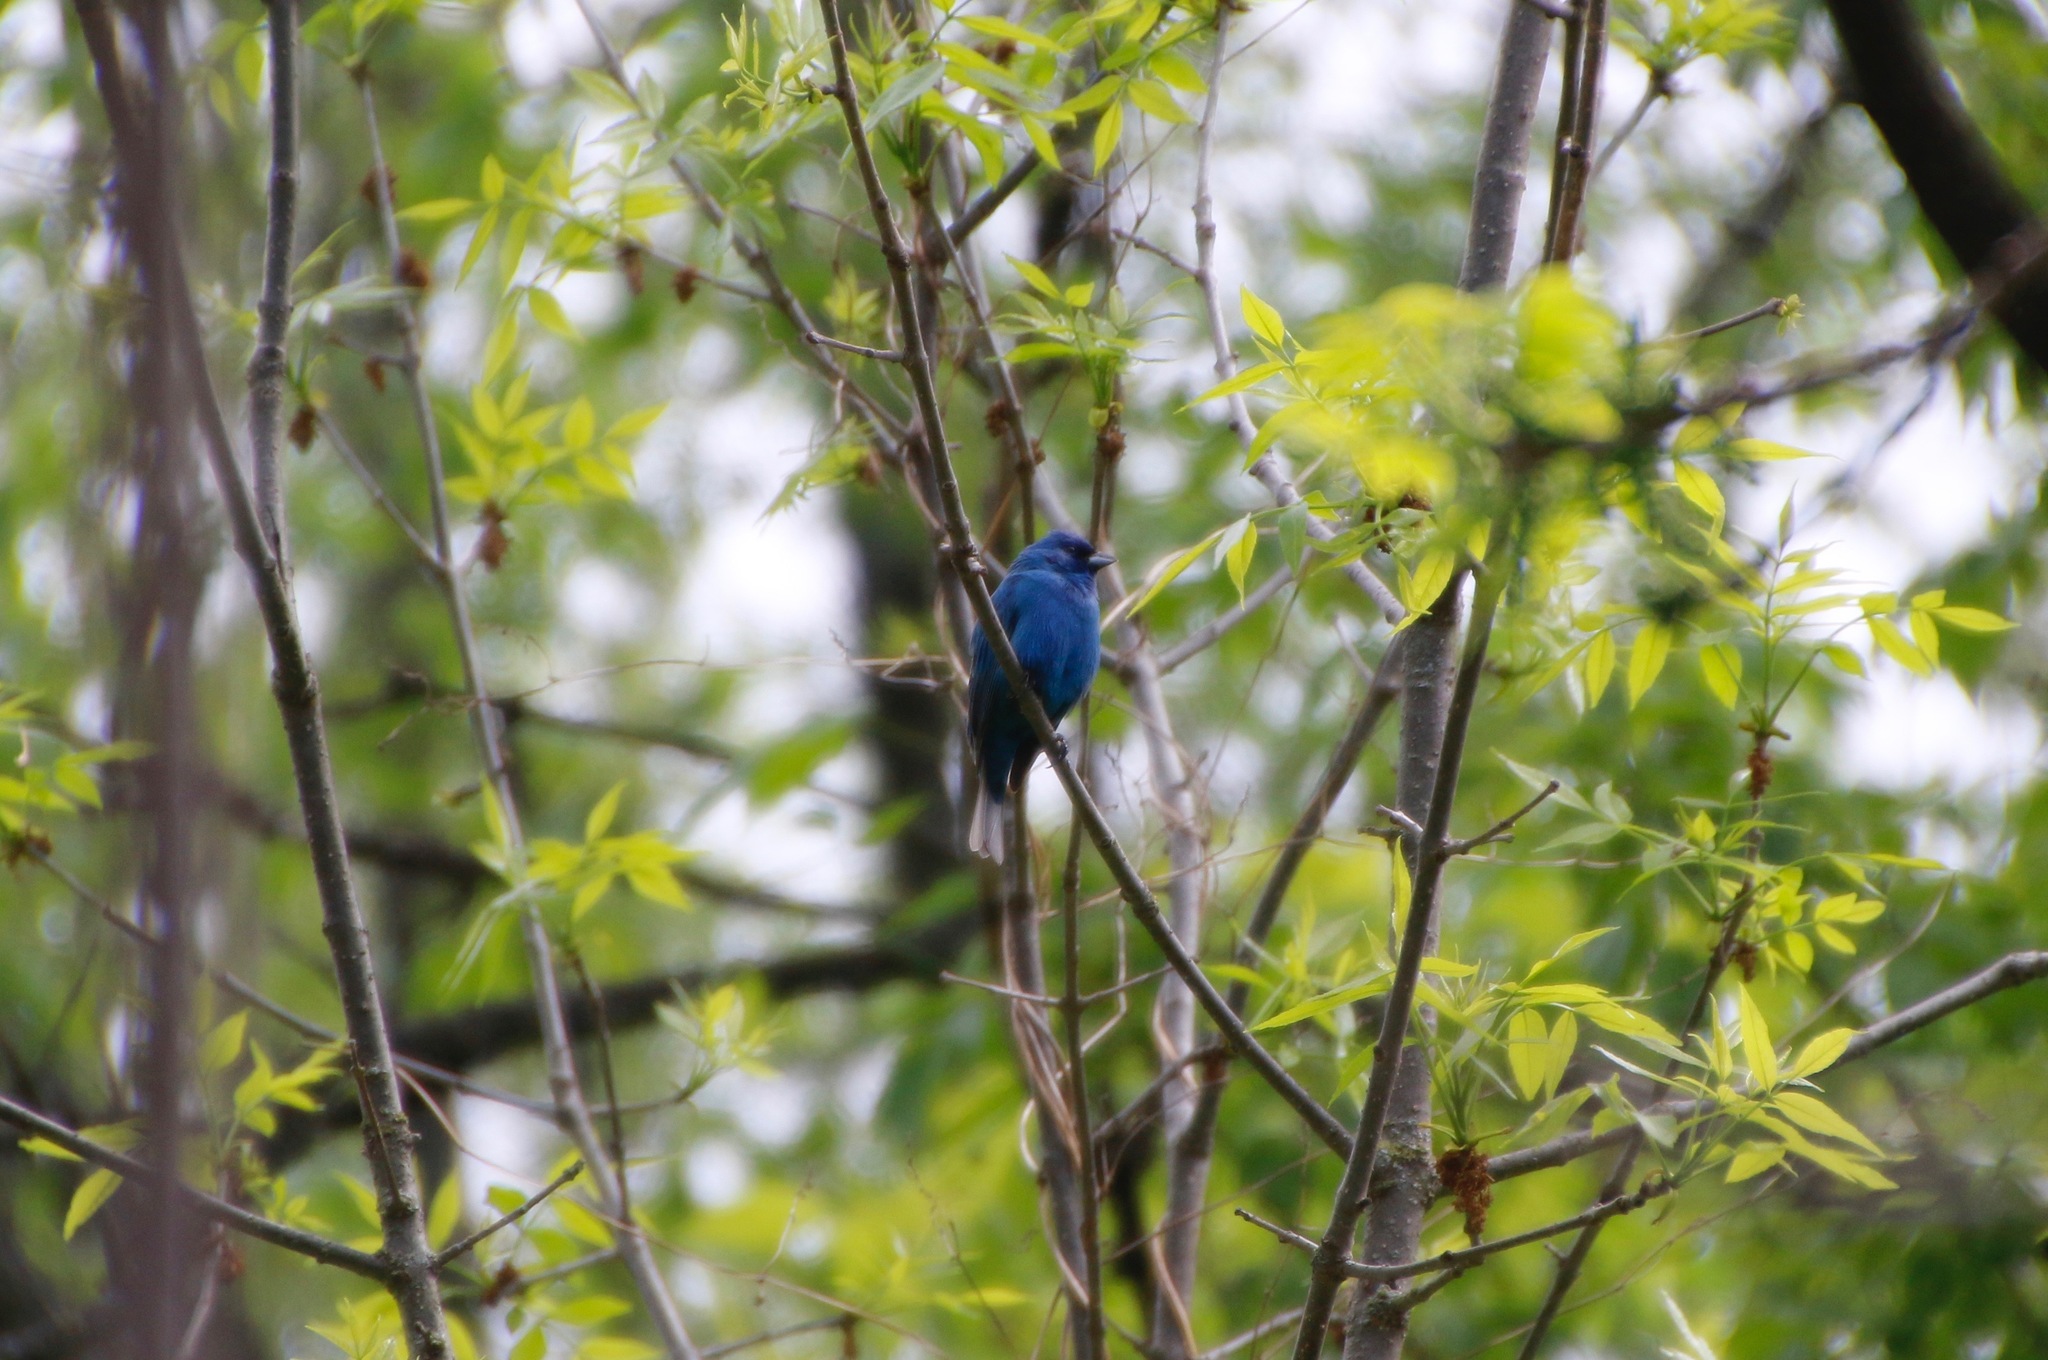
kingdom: Animalia
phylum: Chordata
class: Aves
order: Passeriformes
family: Cardinalidae
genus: Passerina
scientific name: Passerina cyanea
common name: Indigo bunting
